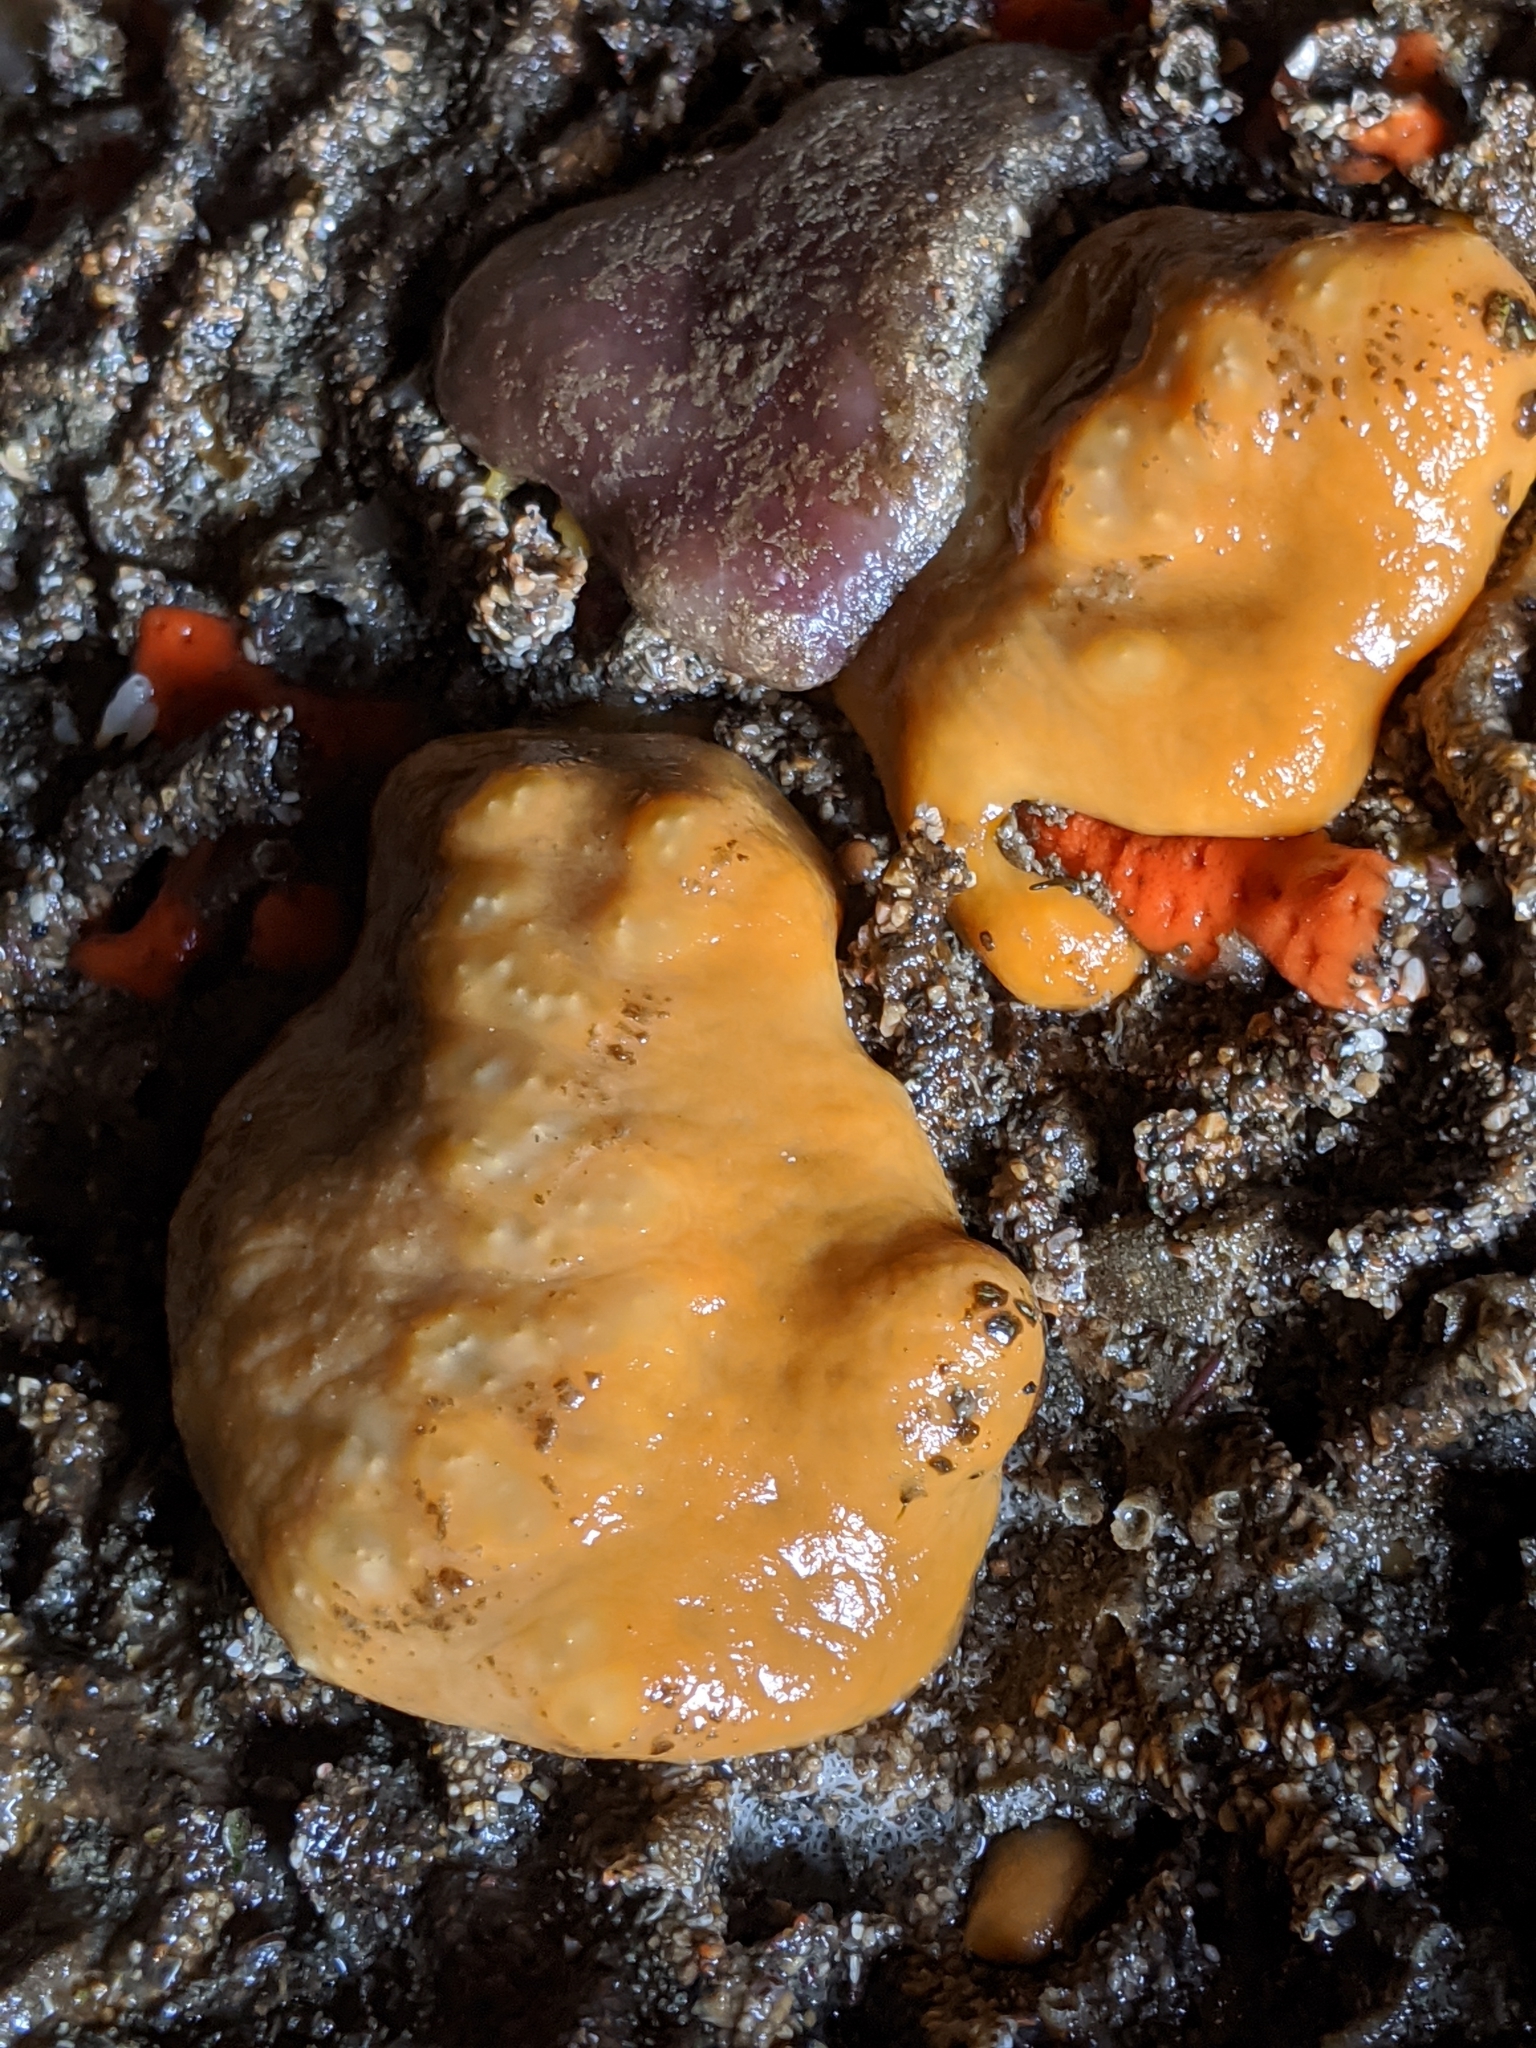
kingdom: Animalia
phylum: Porifera
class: Demospongiae
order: Suberitida
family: Suberitidae
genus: Suberites
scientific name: Suberites lambei
